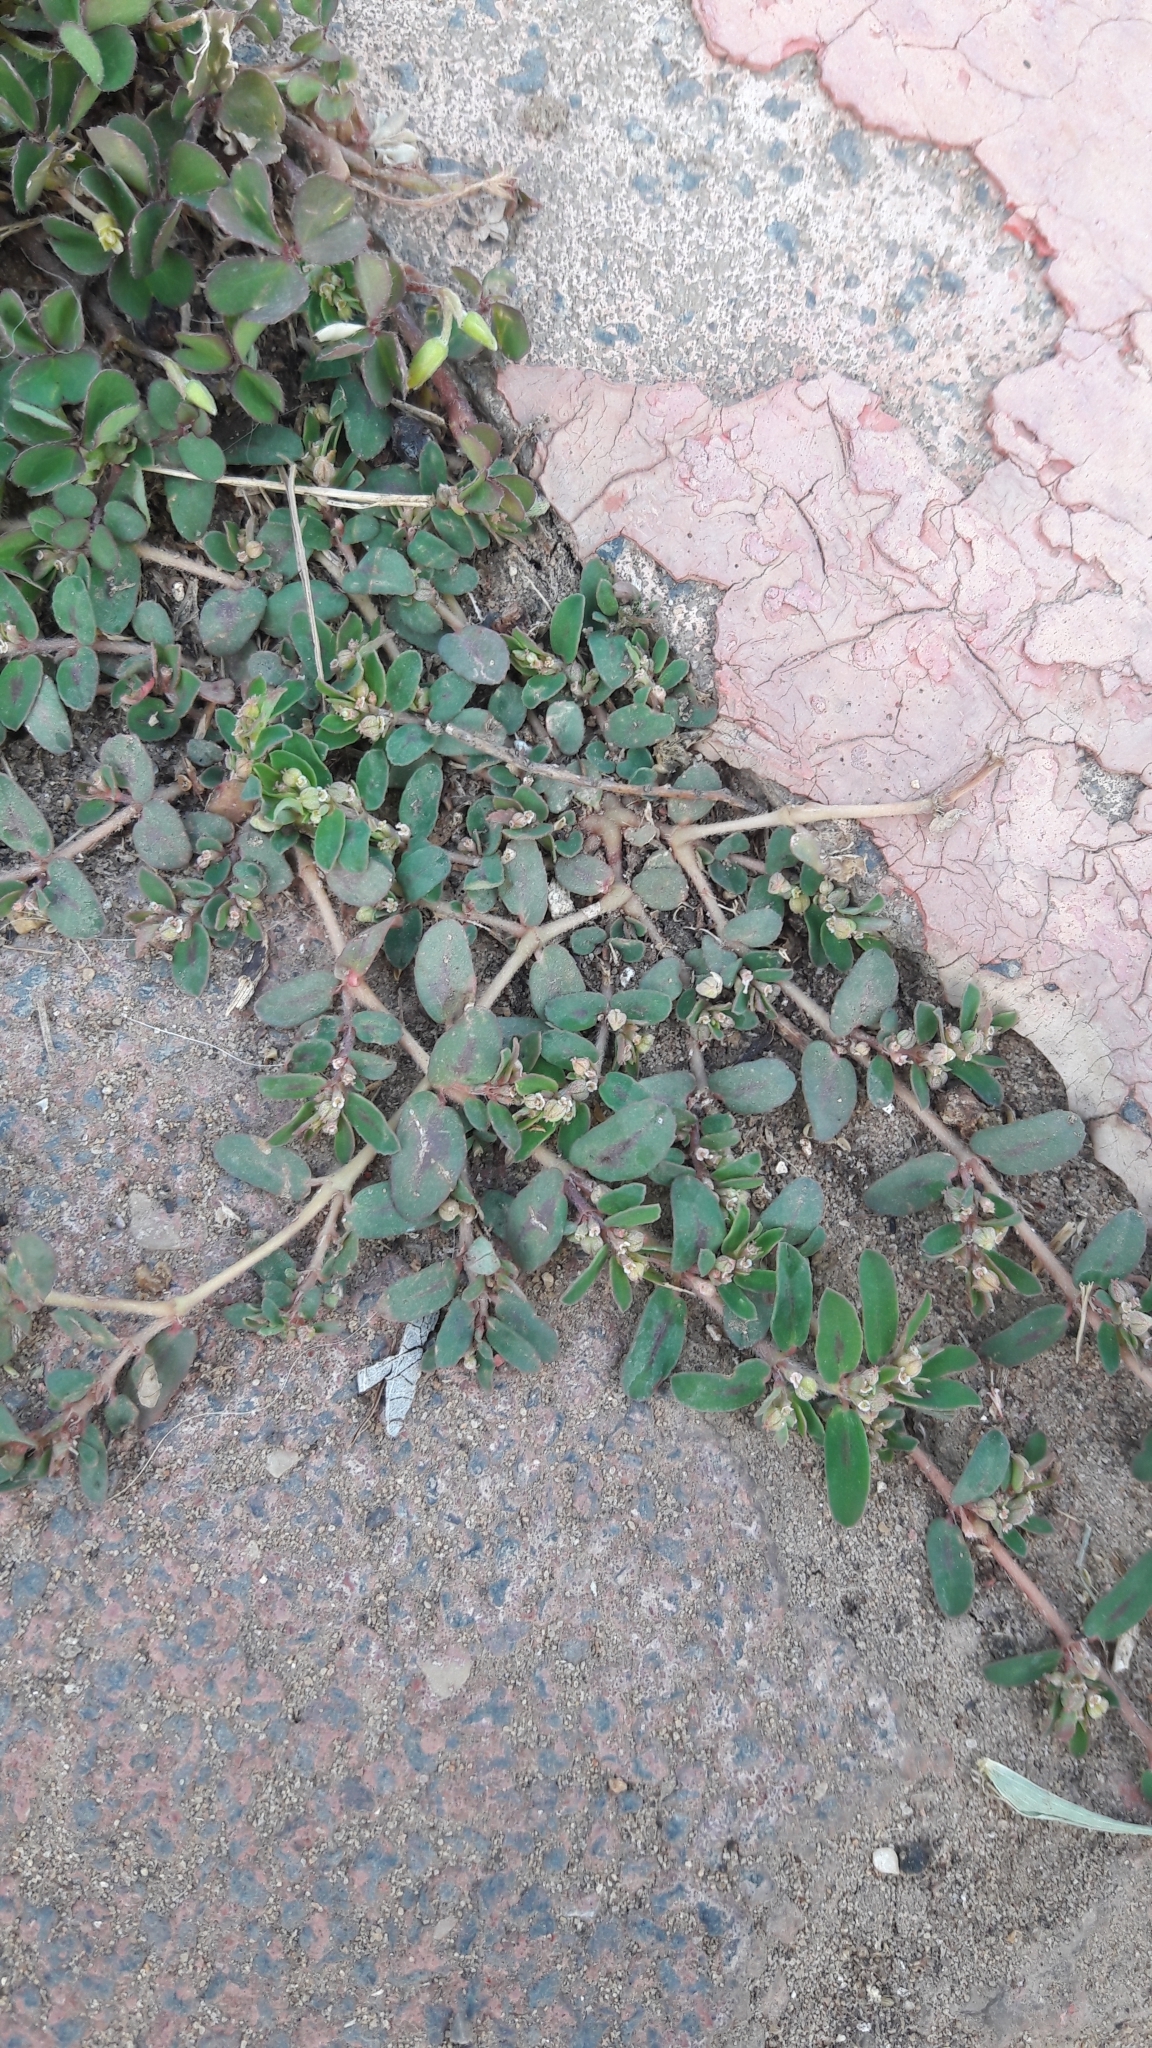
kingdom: Plantae
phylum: Tracheophyta
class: Magnoliopsida
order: Malpighiales
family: Euphorbiaceae
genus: Euphorbia
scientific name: Euphorbia maculata
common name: Spotted spurge
